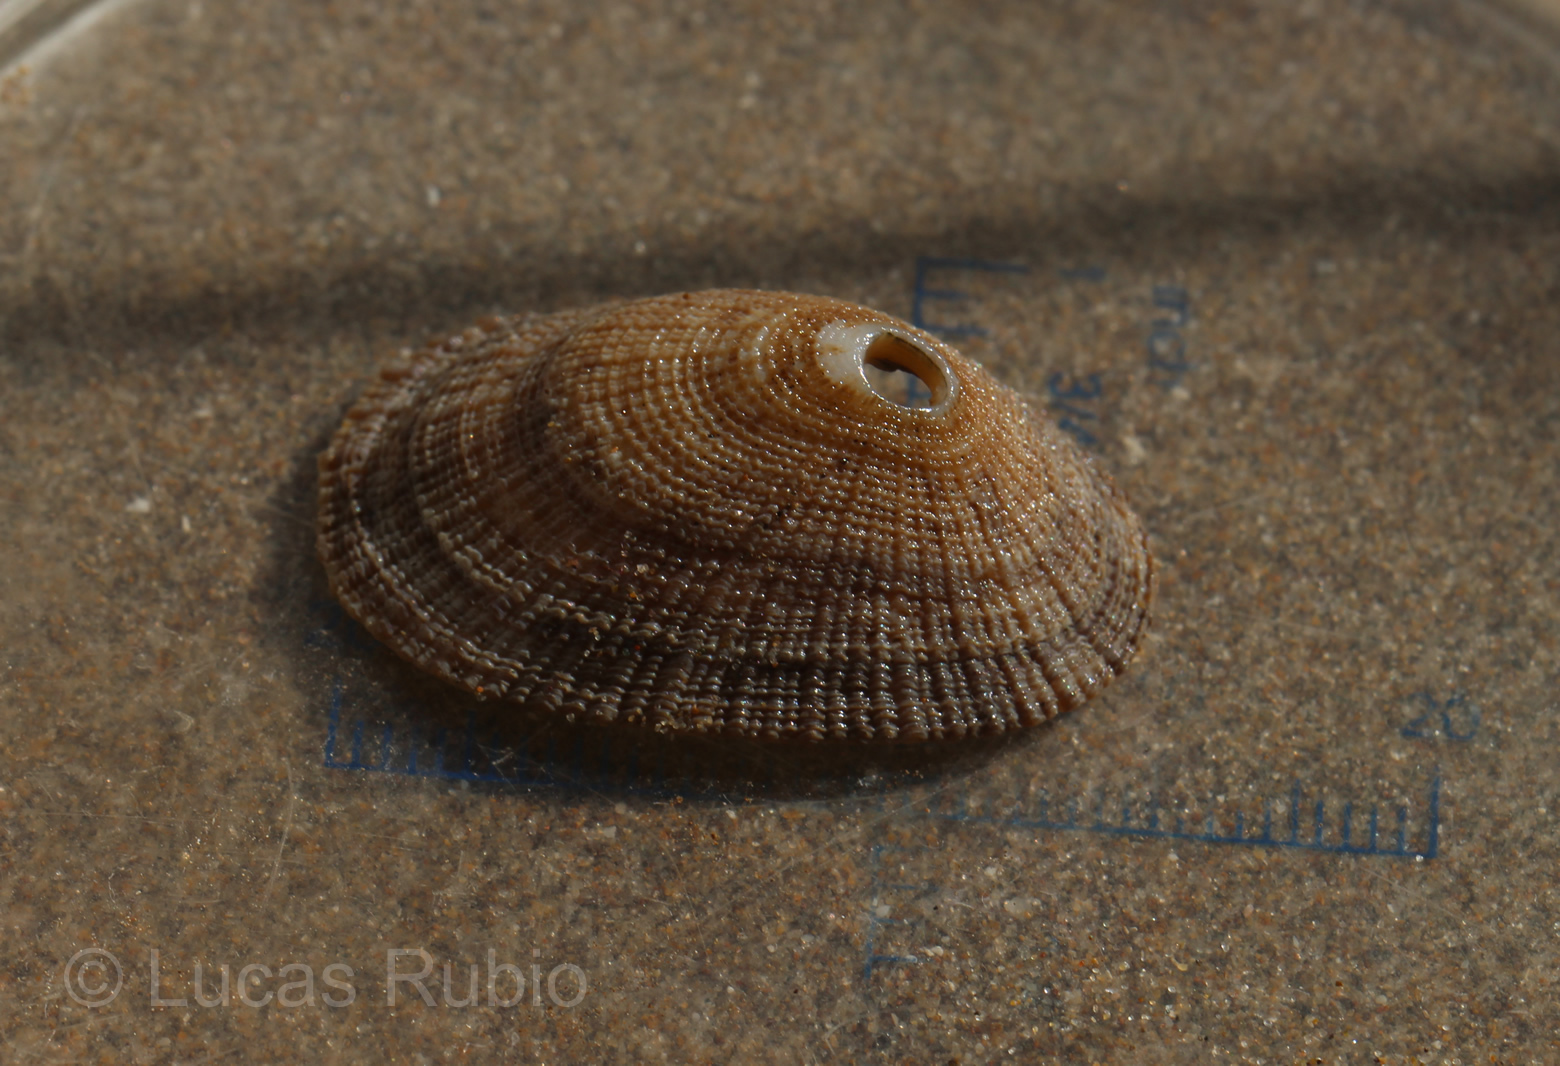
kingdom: Animalia
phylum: Mollusca
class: Gastropoda
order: Lepetellida
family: Fissurellidae
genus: Diodora
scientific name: Diodora patagonica
